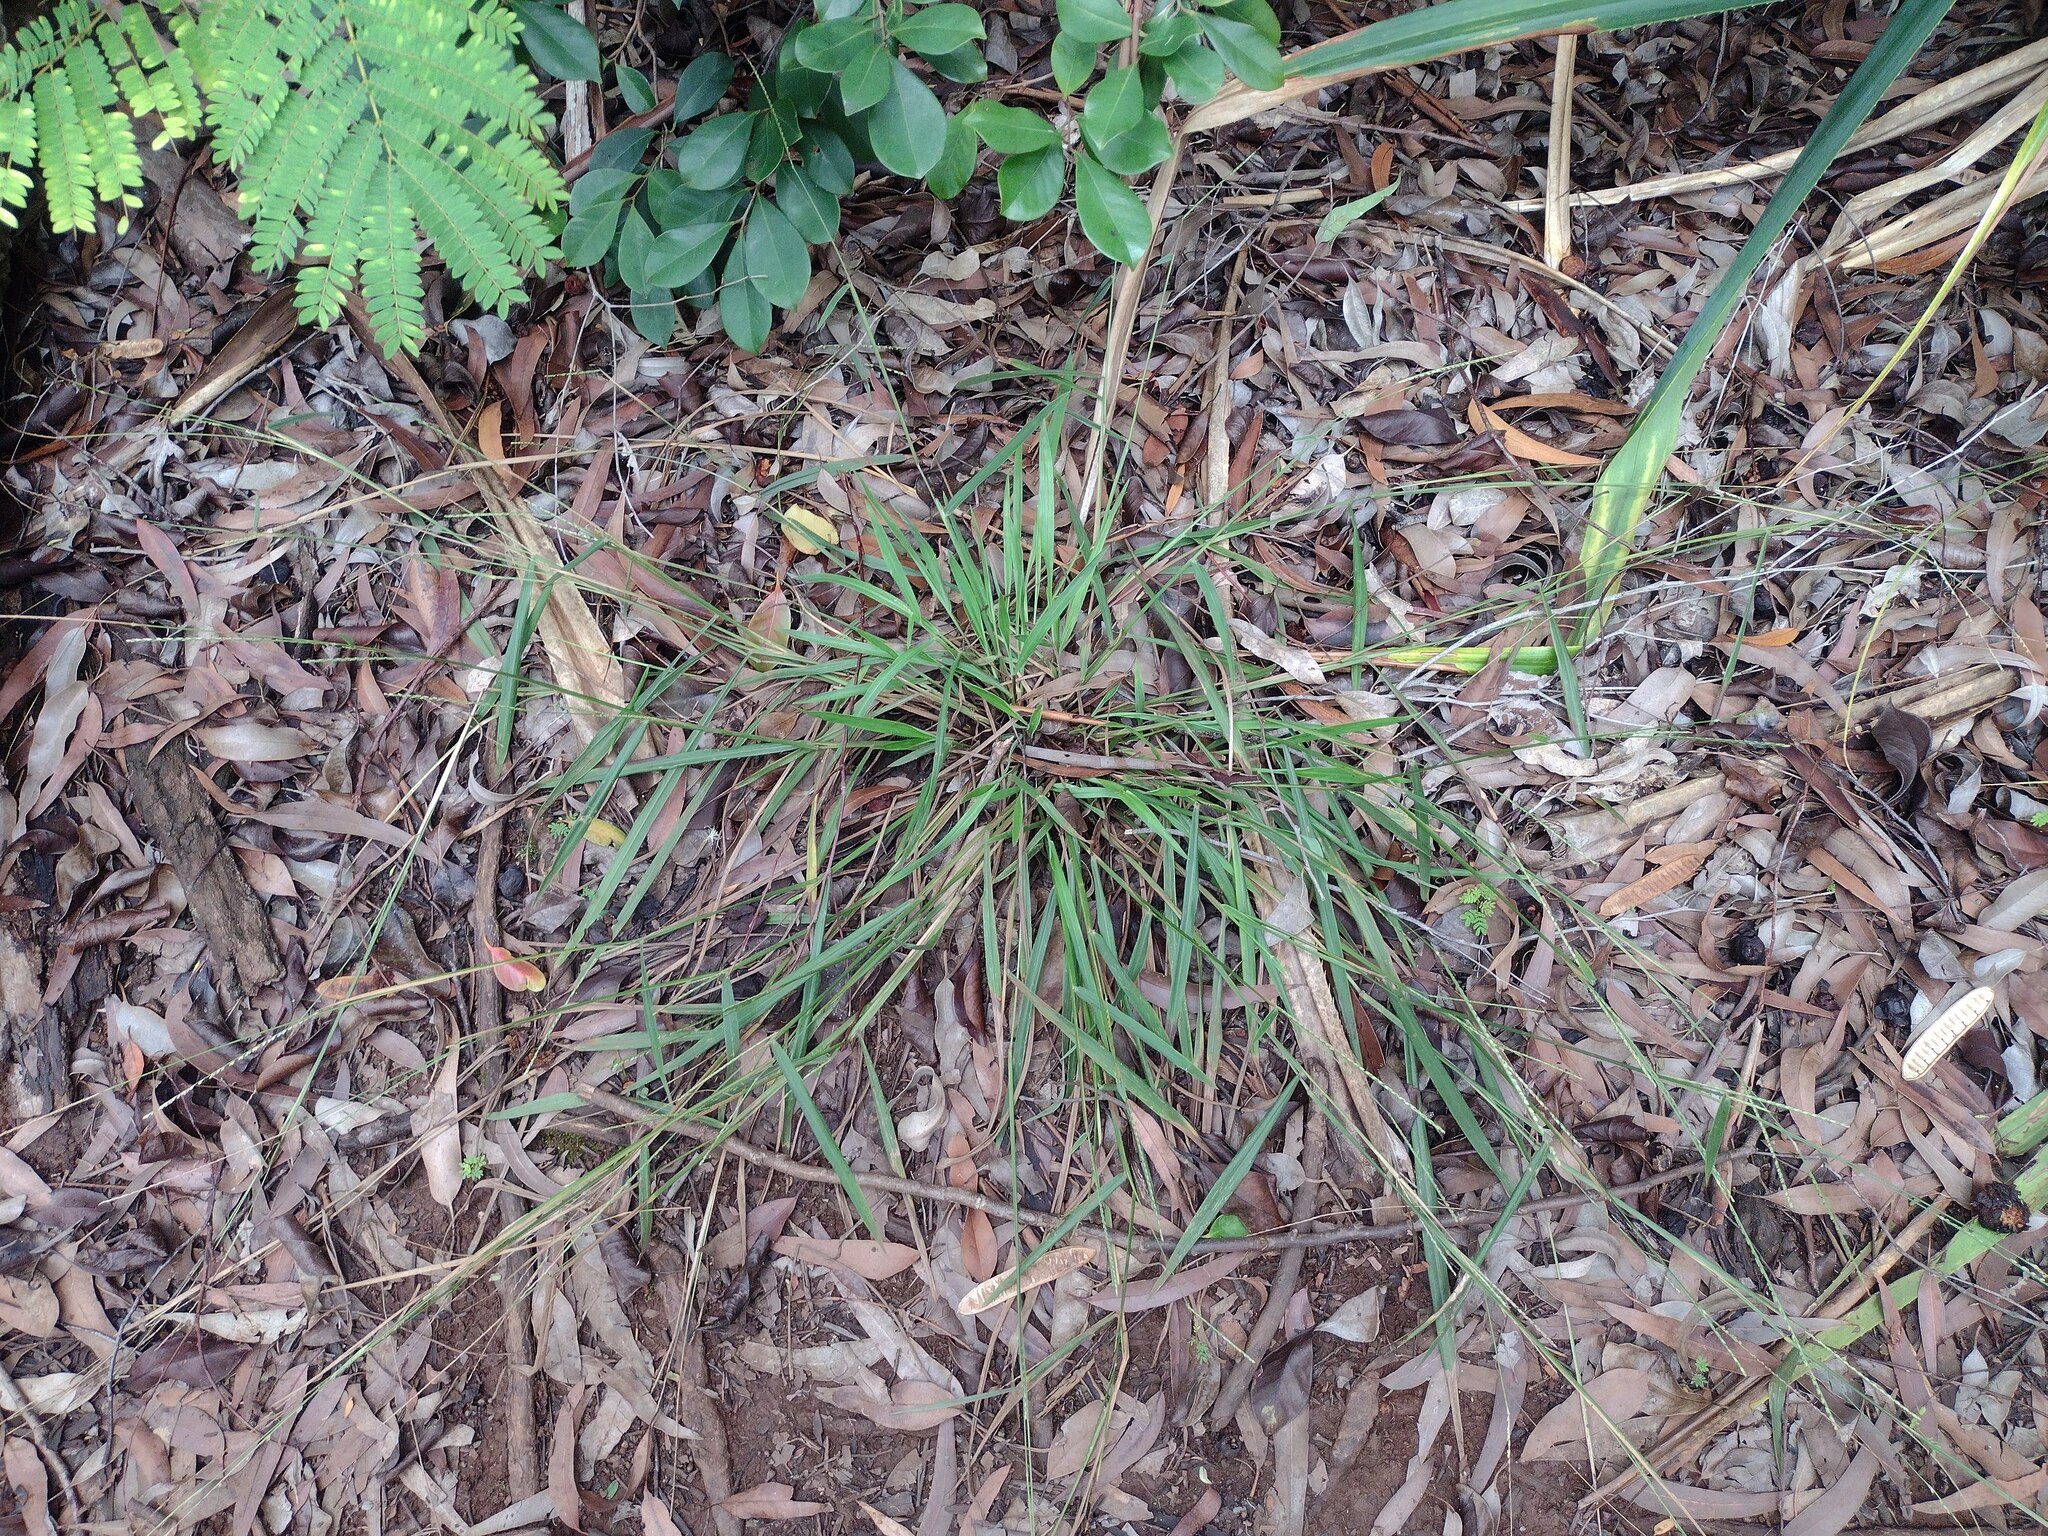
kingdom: Plantae
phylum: Tracheophyta
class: Liliopsida
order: Poales
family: Poaceae
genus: Paspalum
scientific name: Paspalum pilosum
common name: Crowngrass
